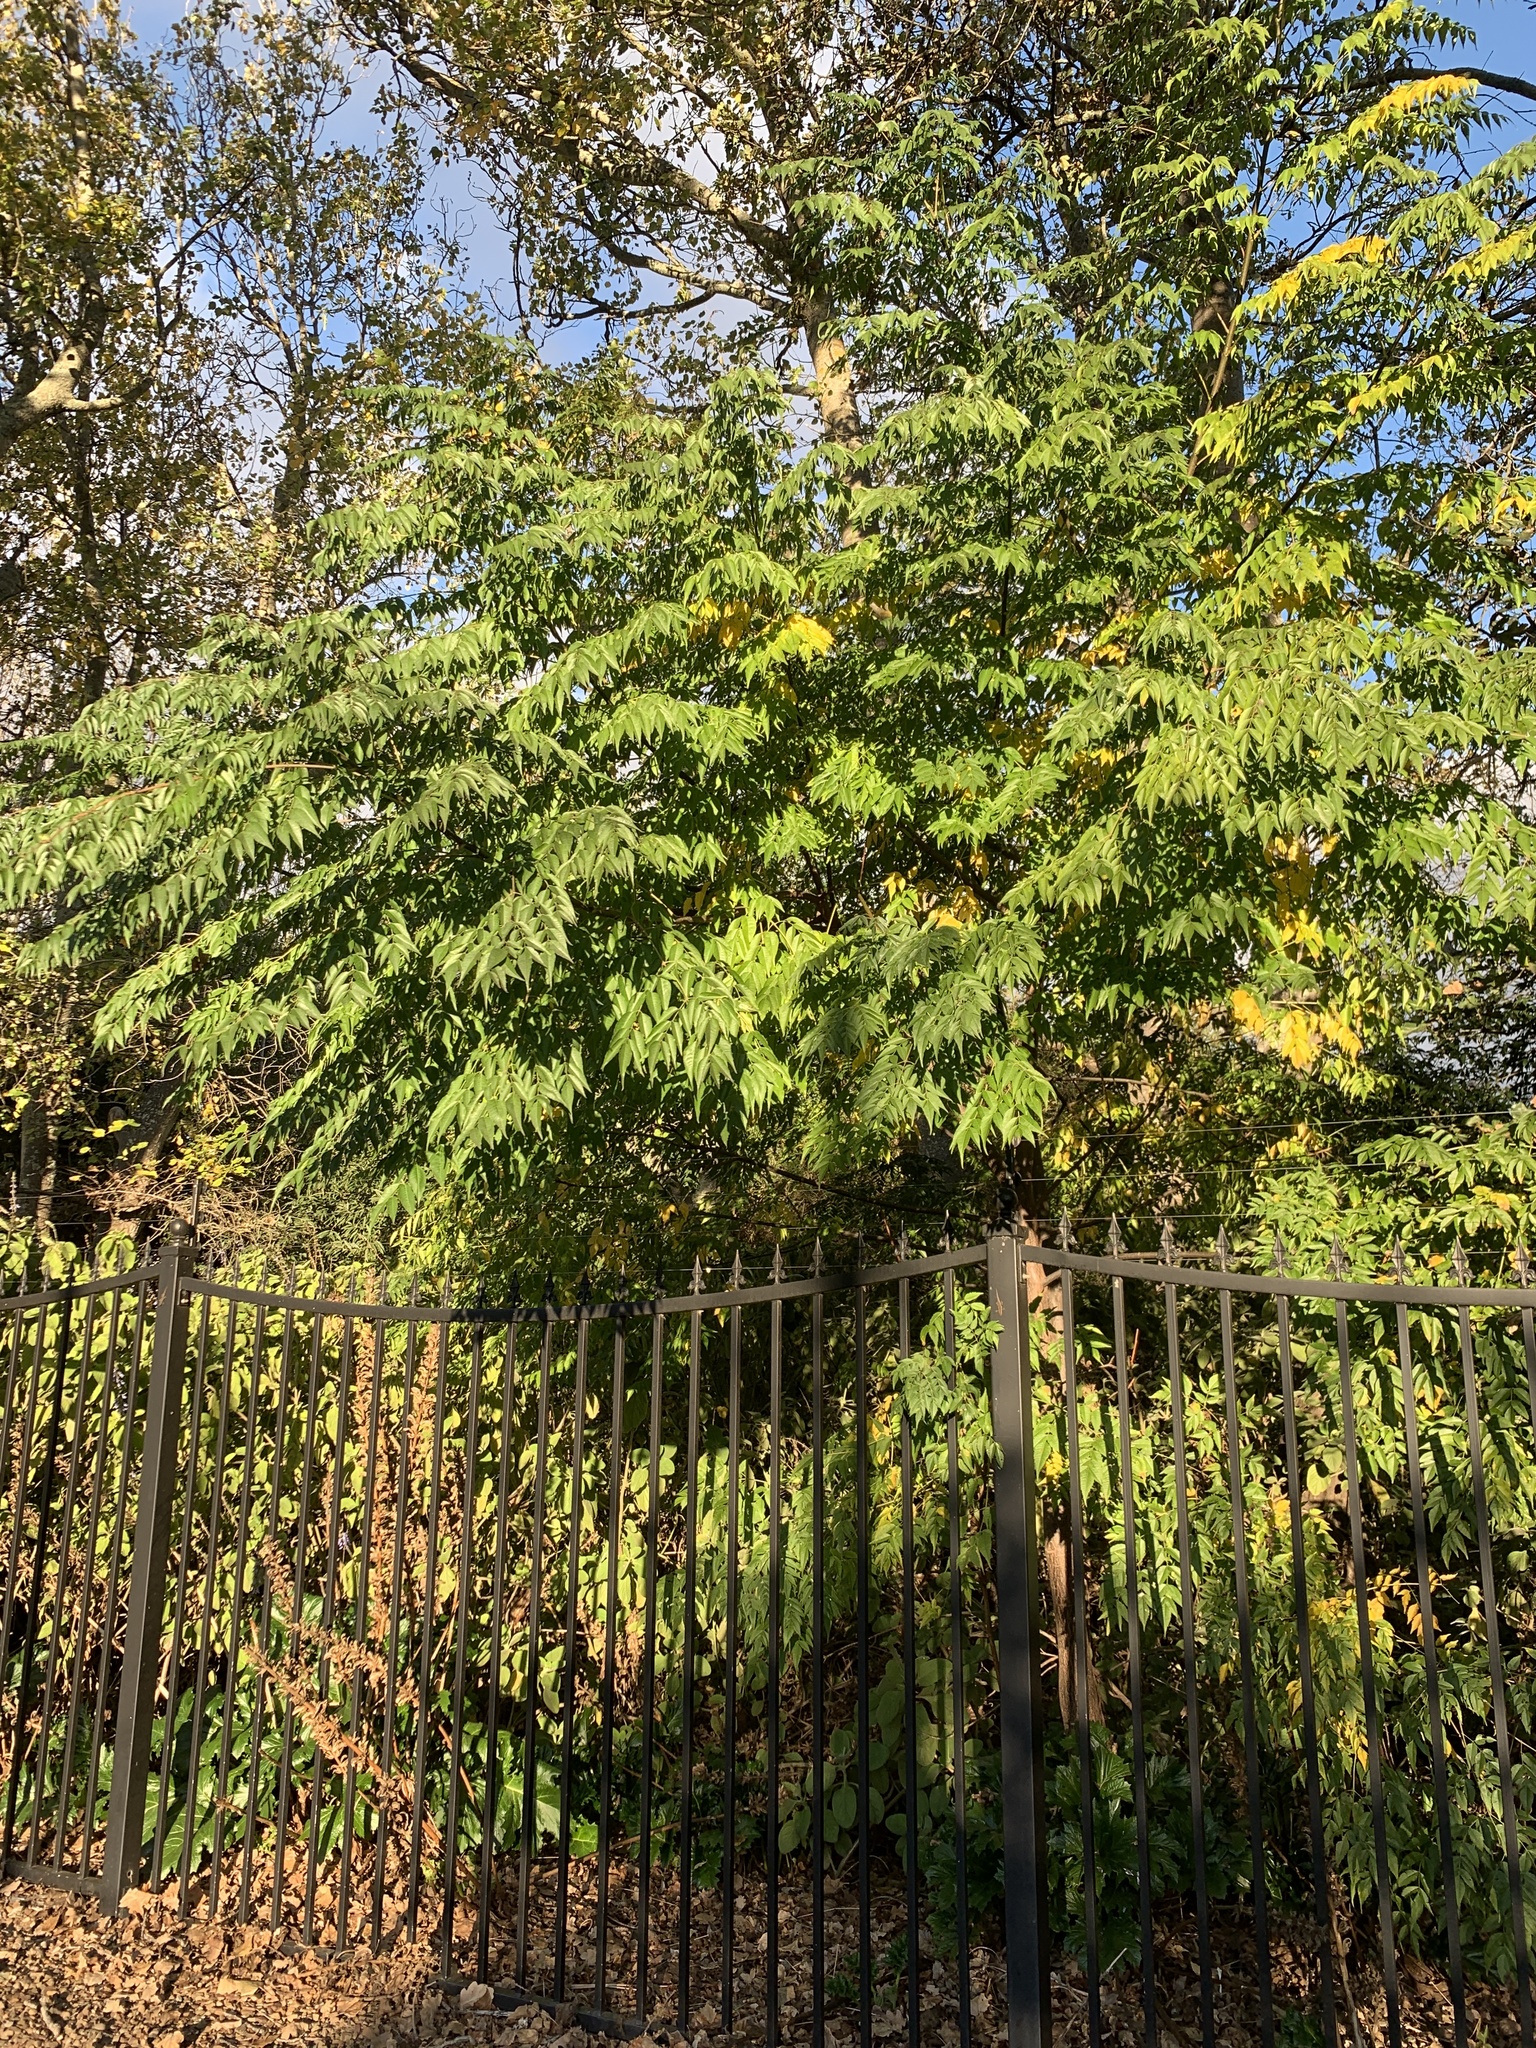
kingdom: Plantae
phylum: Tracheophyta
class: Magnoliopsida
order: Sapindales
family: Meliaceae
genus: Melia
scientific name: Melia azedarach
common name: Chinaberrytree
